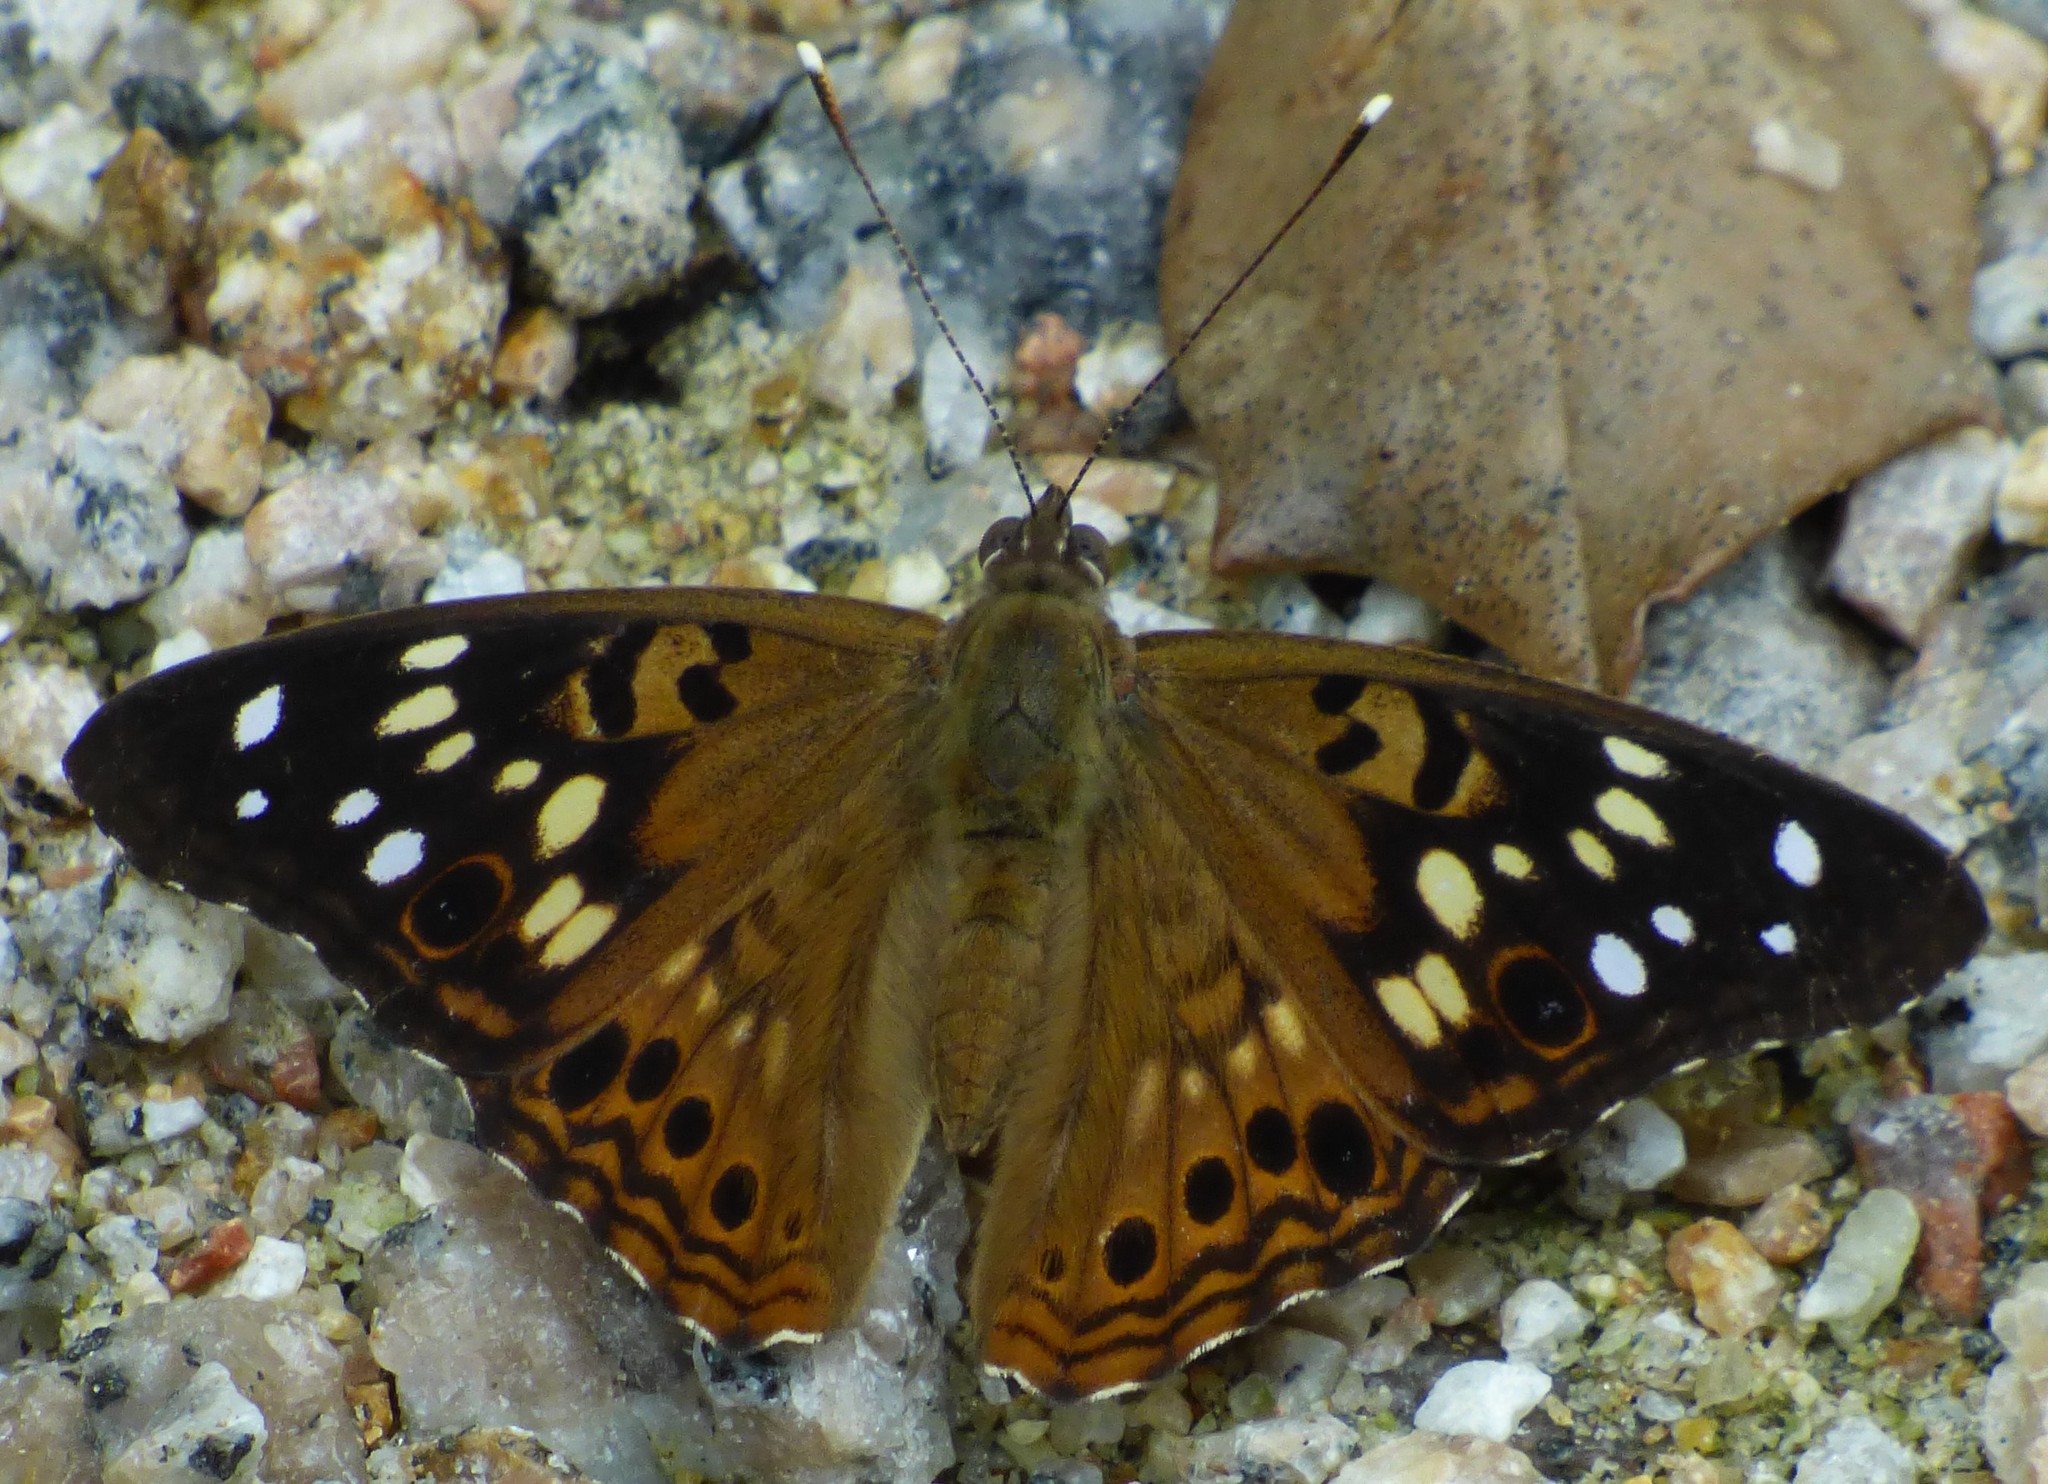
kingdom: Animalia
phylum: Arthropoda
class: Insecta
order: Lepidoptera
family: Nymphalidae
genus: Asterocampa
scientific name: Asterocampa celtis
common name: Hackberry emperor
